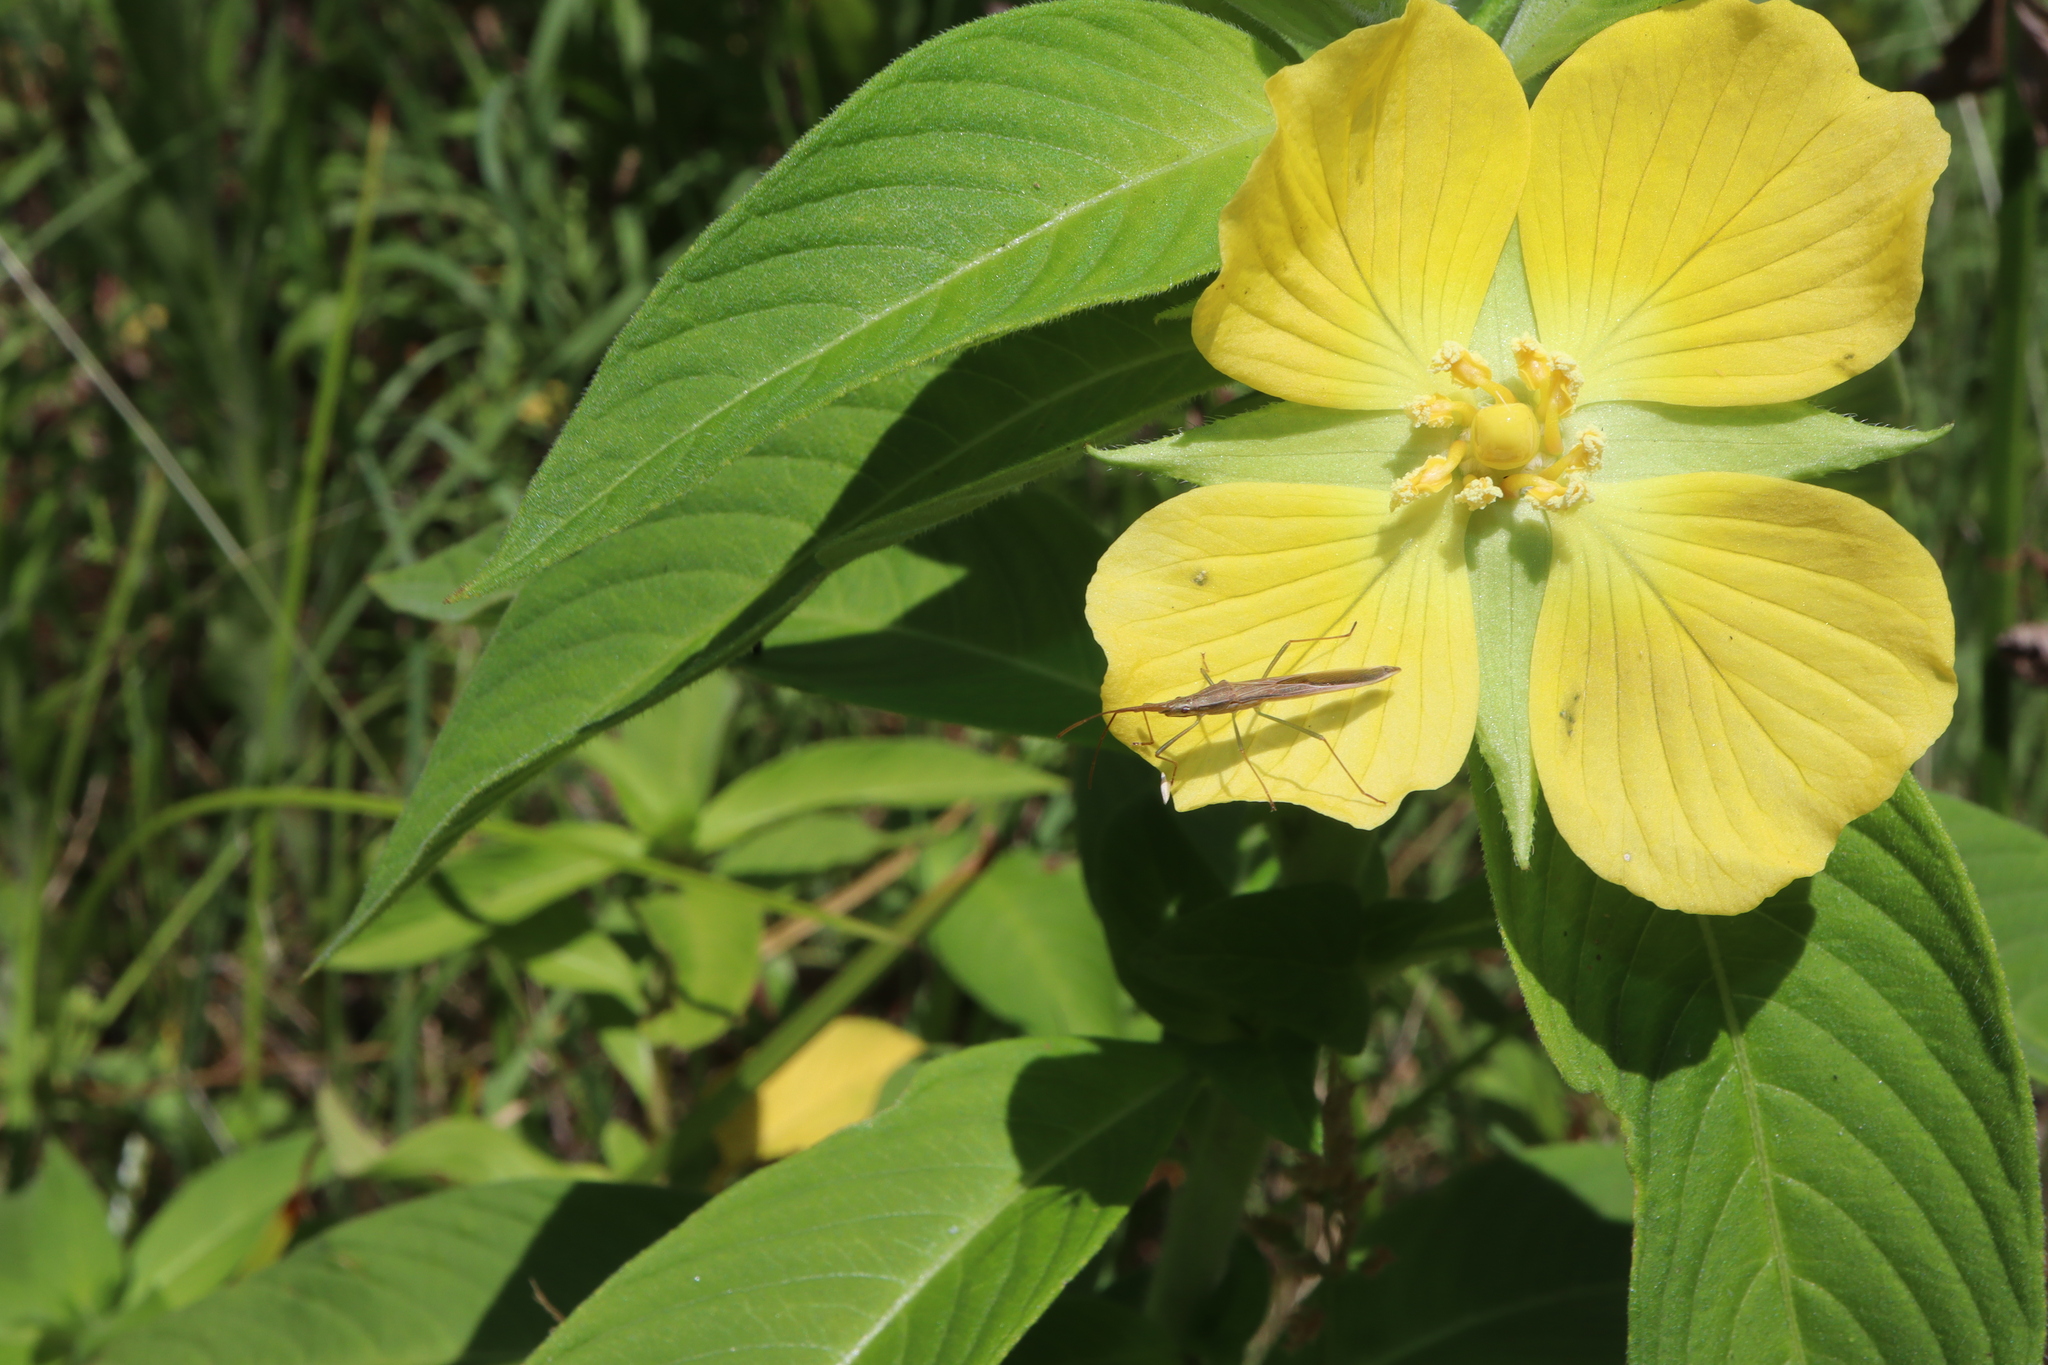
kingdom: Animalia
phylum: Arthropoda
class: Insecta
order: Hemiptera
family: Alydidae
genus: Mutusca
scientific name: Mutusca brevicornis
